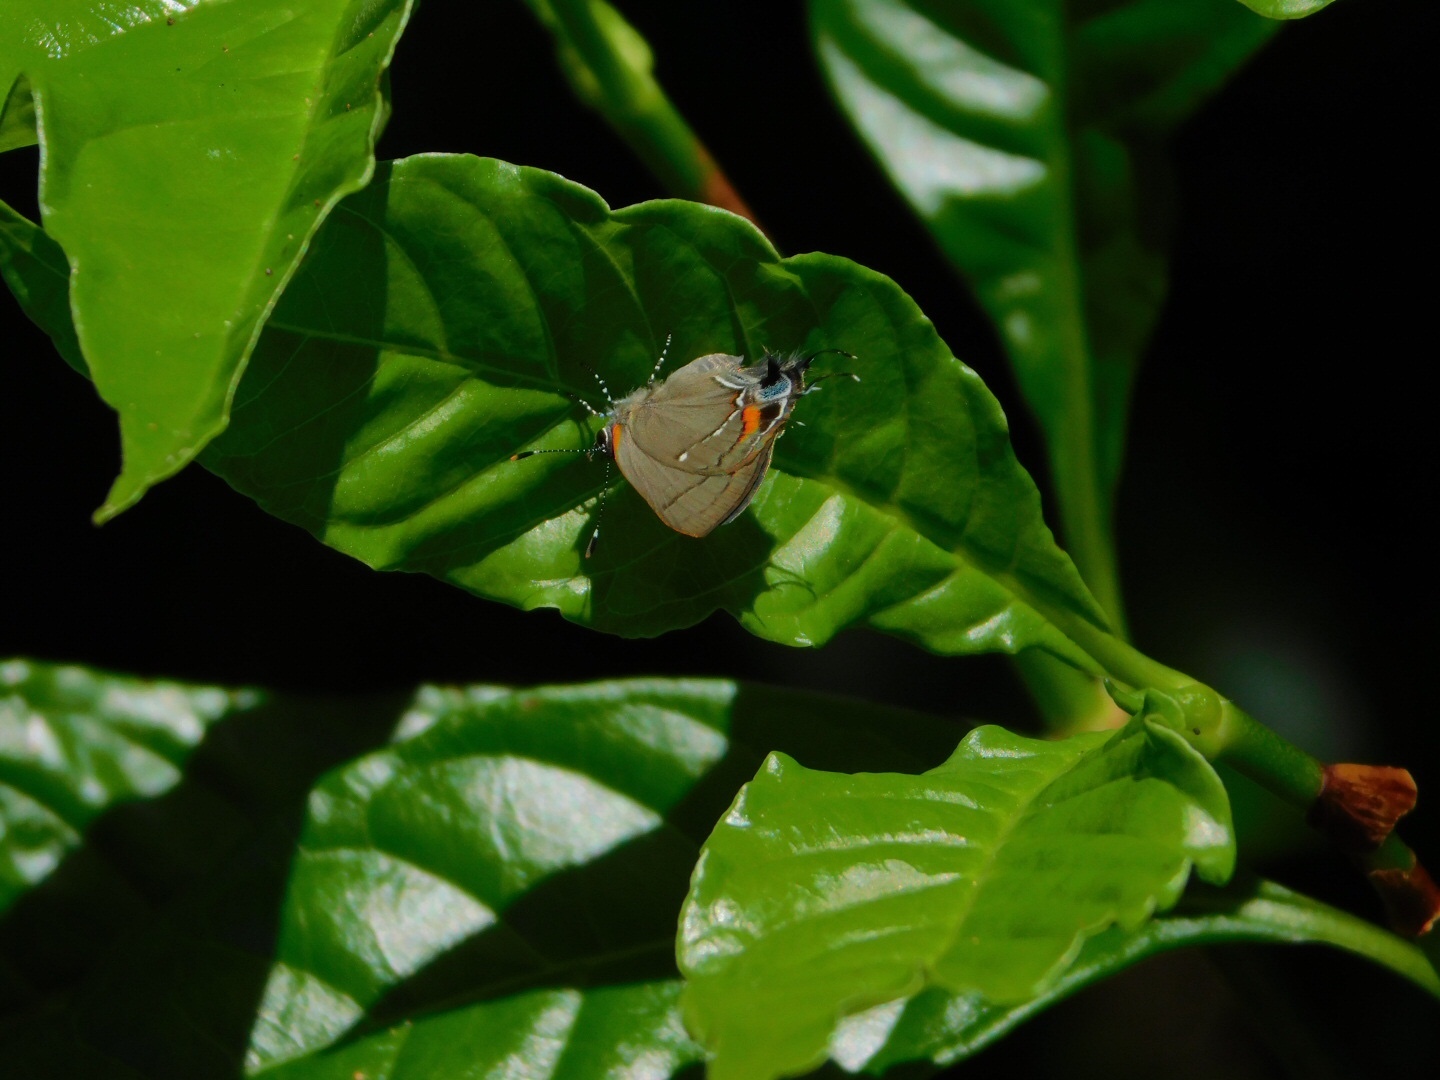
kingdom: Animalia
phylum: Arthropoda
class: Insecta
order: Lepidoptera
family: Lycaenidae
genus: Thecla
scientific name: Thecla angelia
